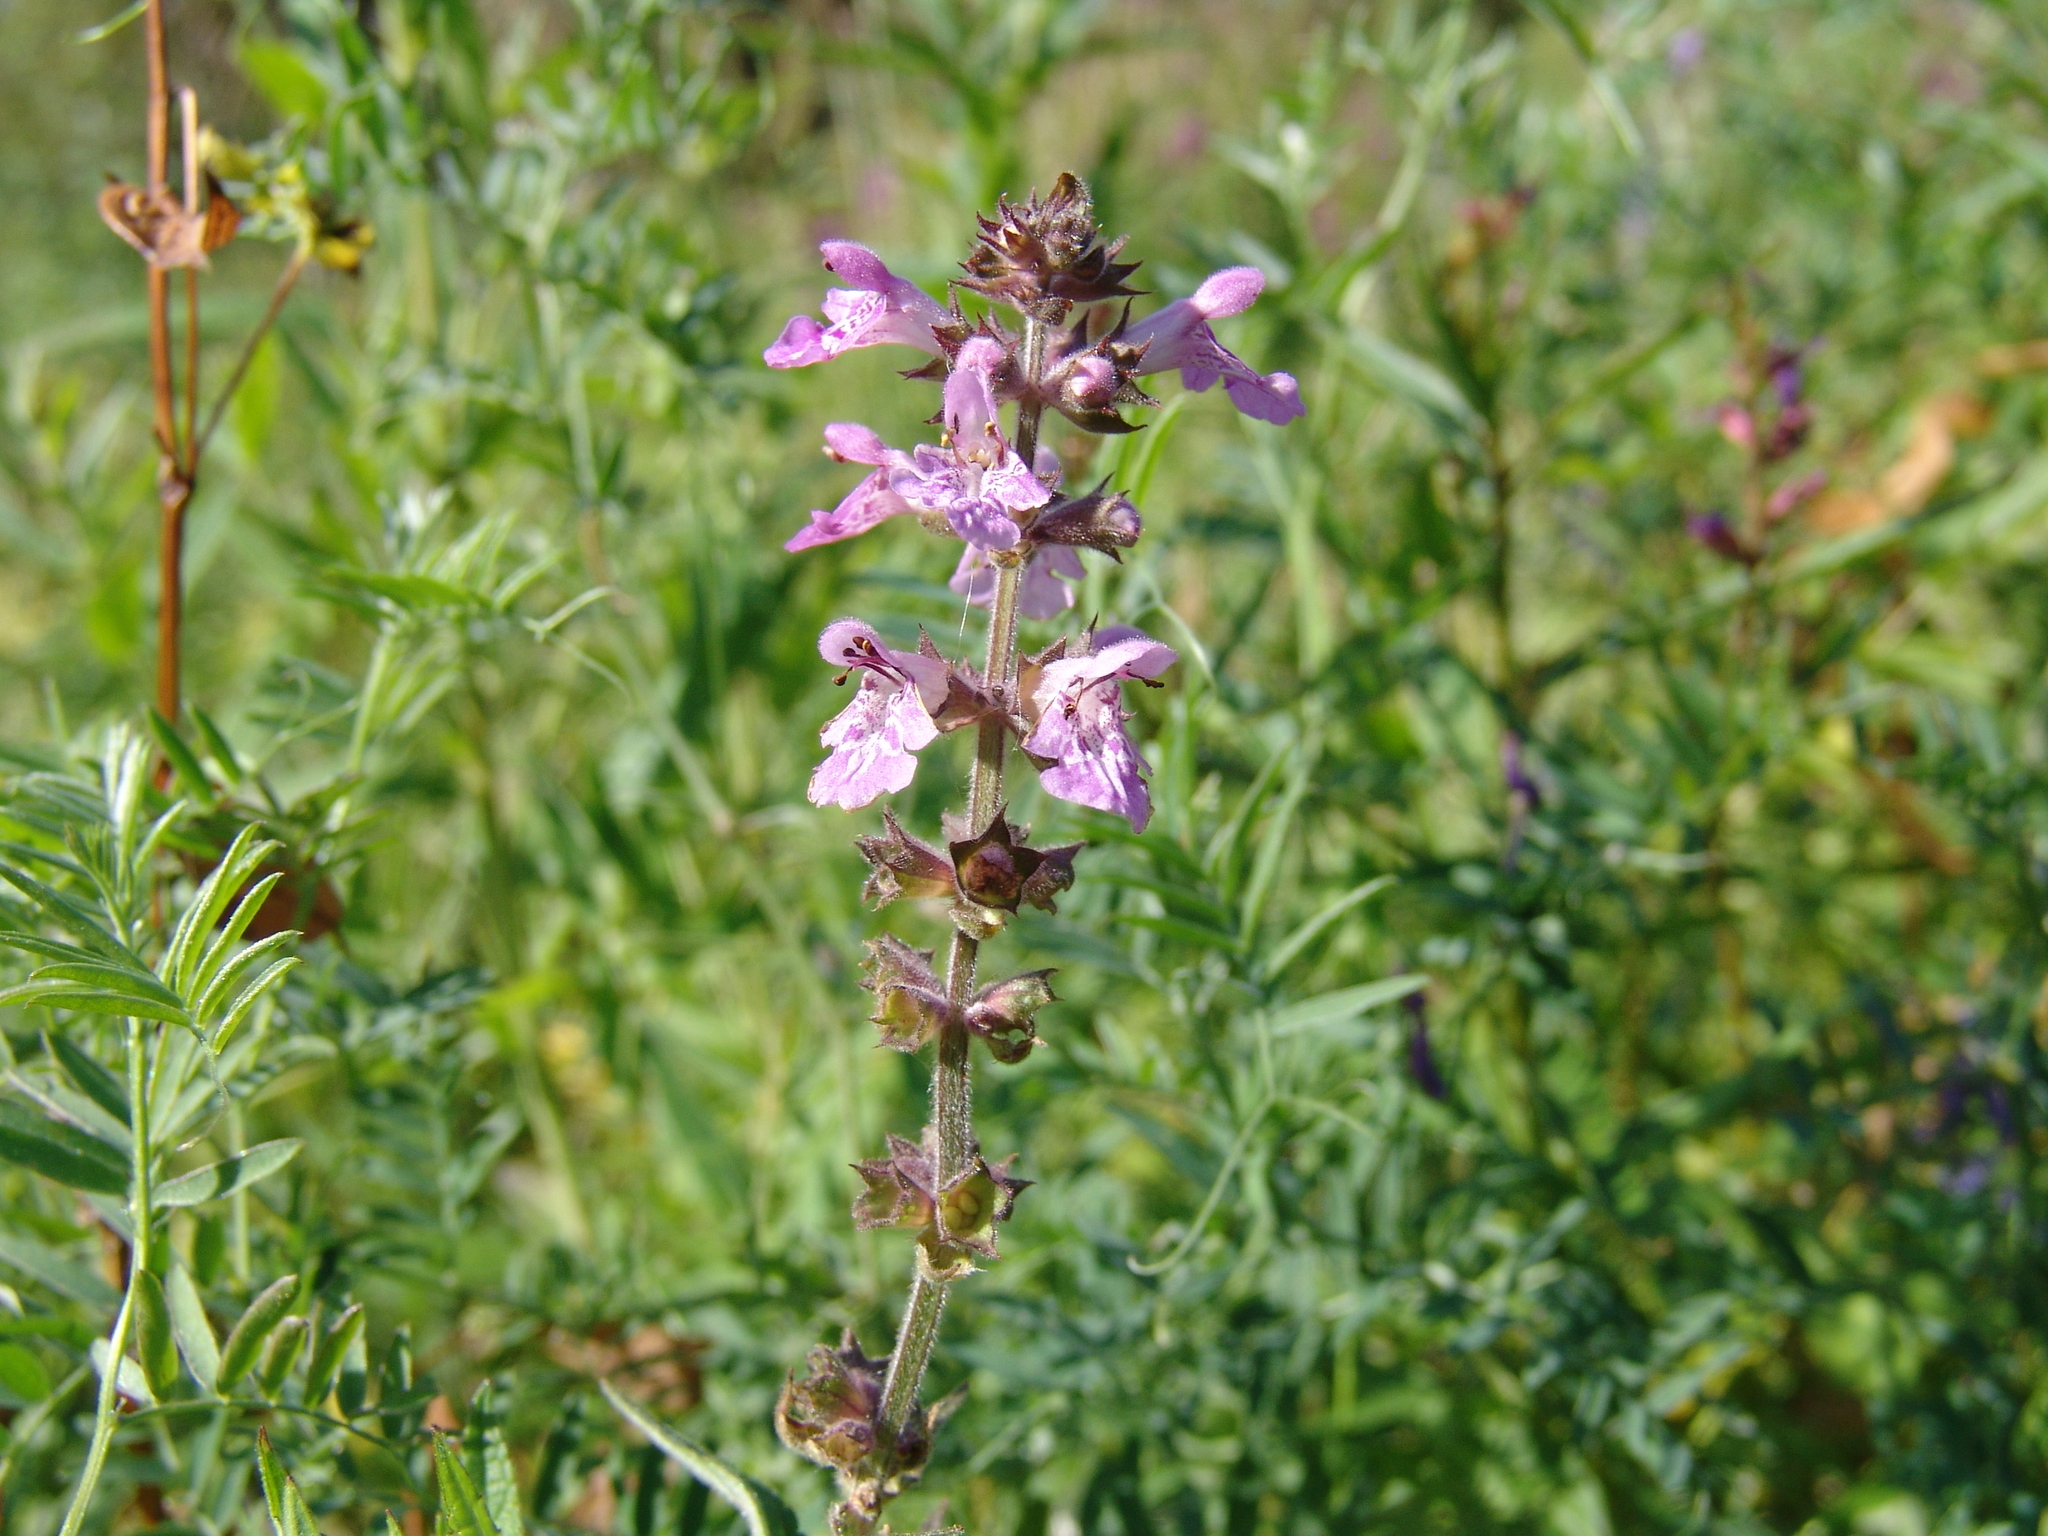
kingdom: Plantae
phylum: Tracheophyta
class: Magnoliopsida
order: Lamiales
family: Lamiaceae
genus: Stachys
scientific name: Stachys palustris
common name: Marsh woundwort
